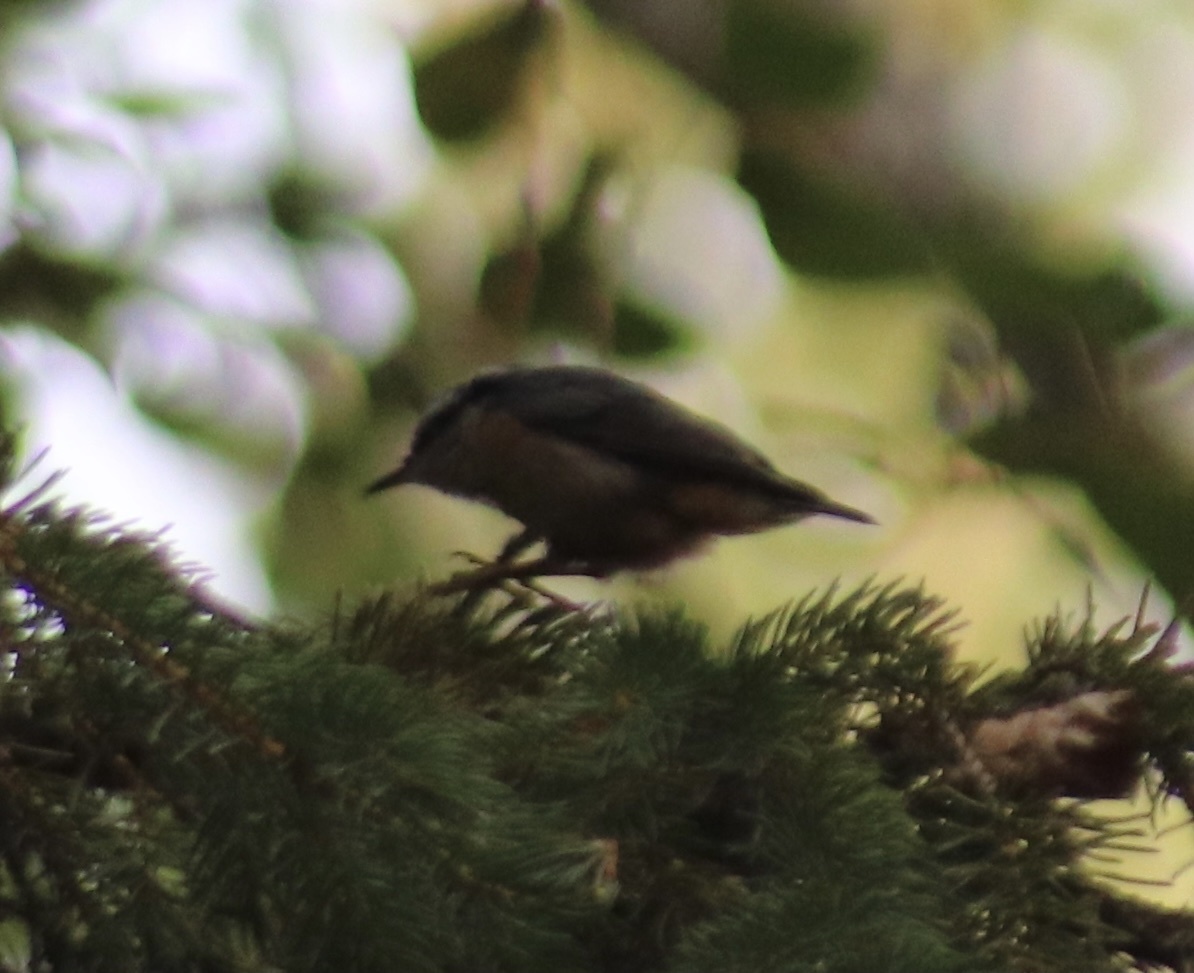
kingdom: Animalia
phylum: Chordata
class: Aves
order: Passeriformes
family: Sittidae
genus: Sitta
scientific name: Sitta canadensis
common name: Red-breasted nuthatch
